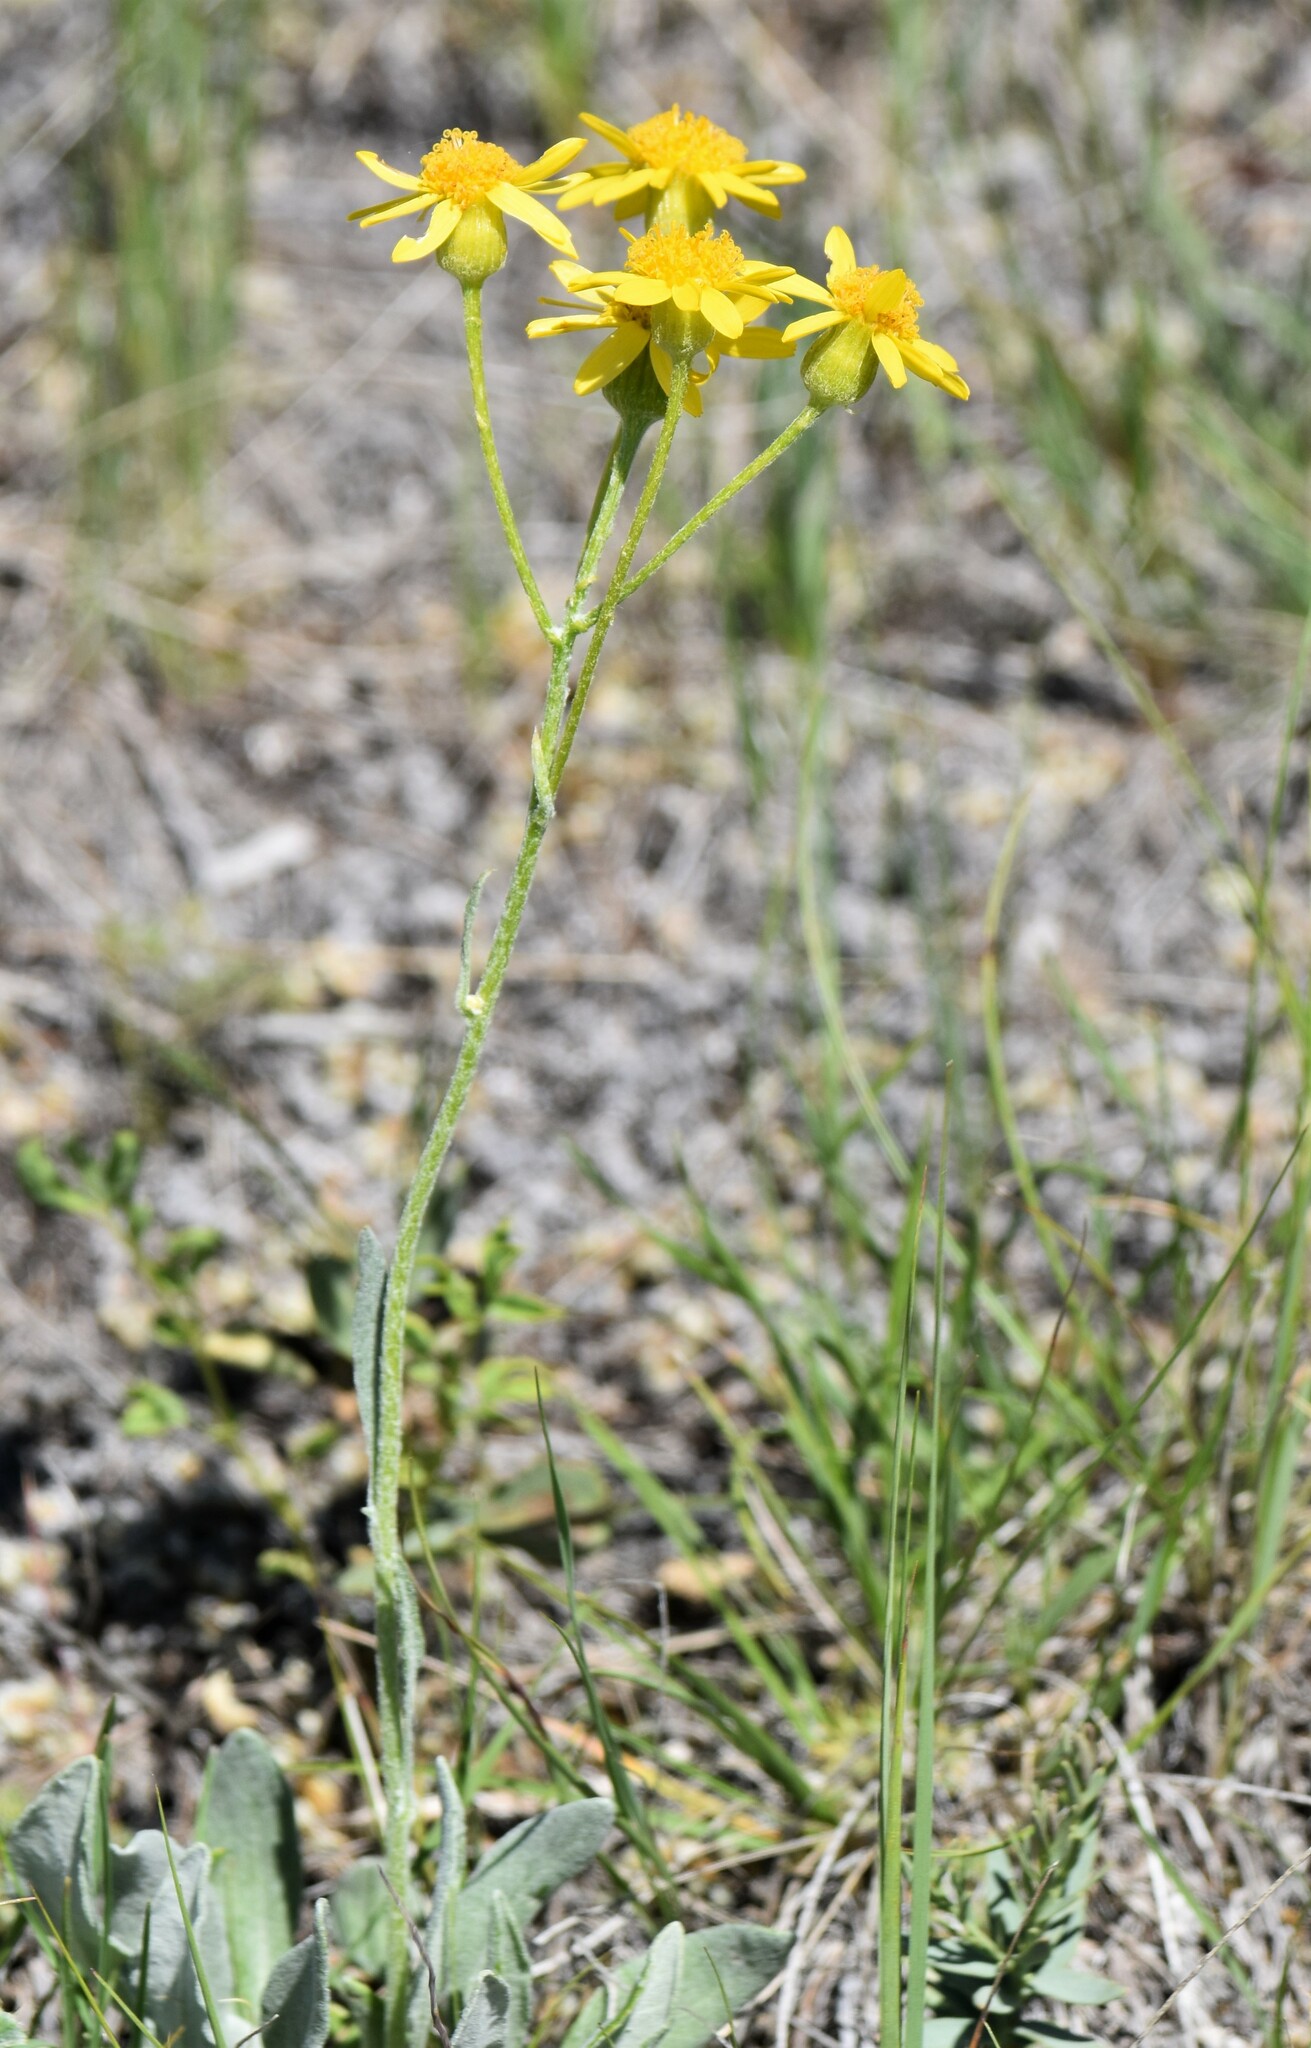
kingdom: Plantae
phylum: Tracheophyta
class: Magnoliopsida
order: Asterales
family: Asteraceae
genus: Packera
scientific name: Packera cana
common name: Woolly groundsel
